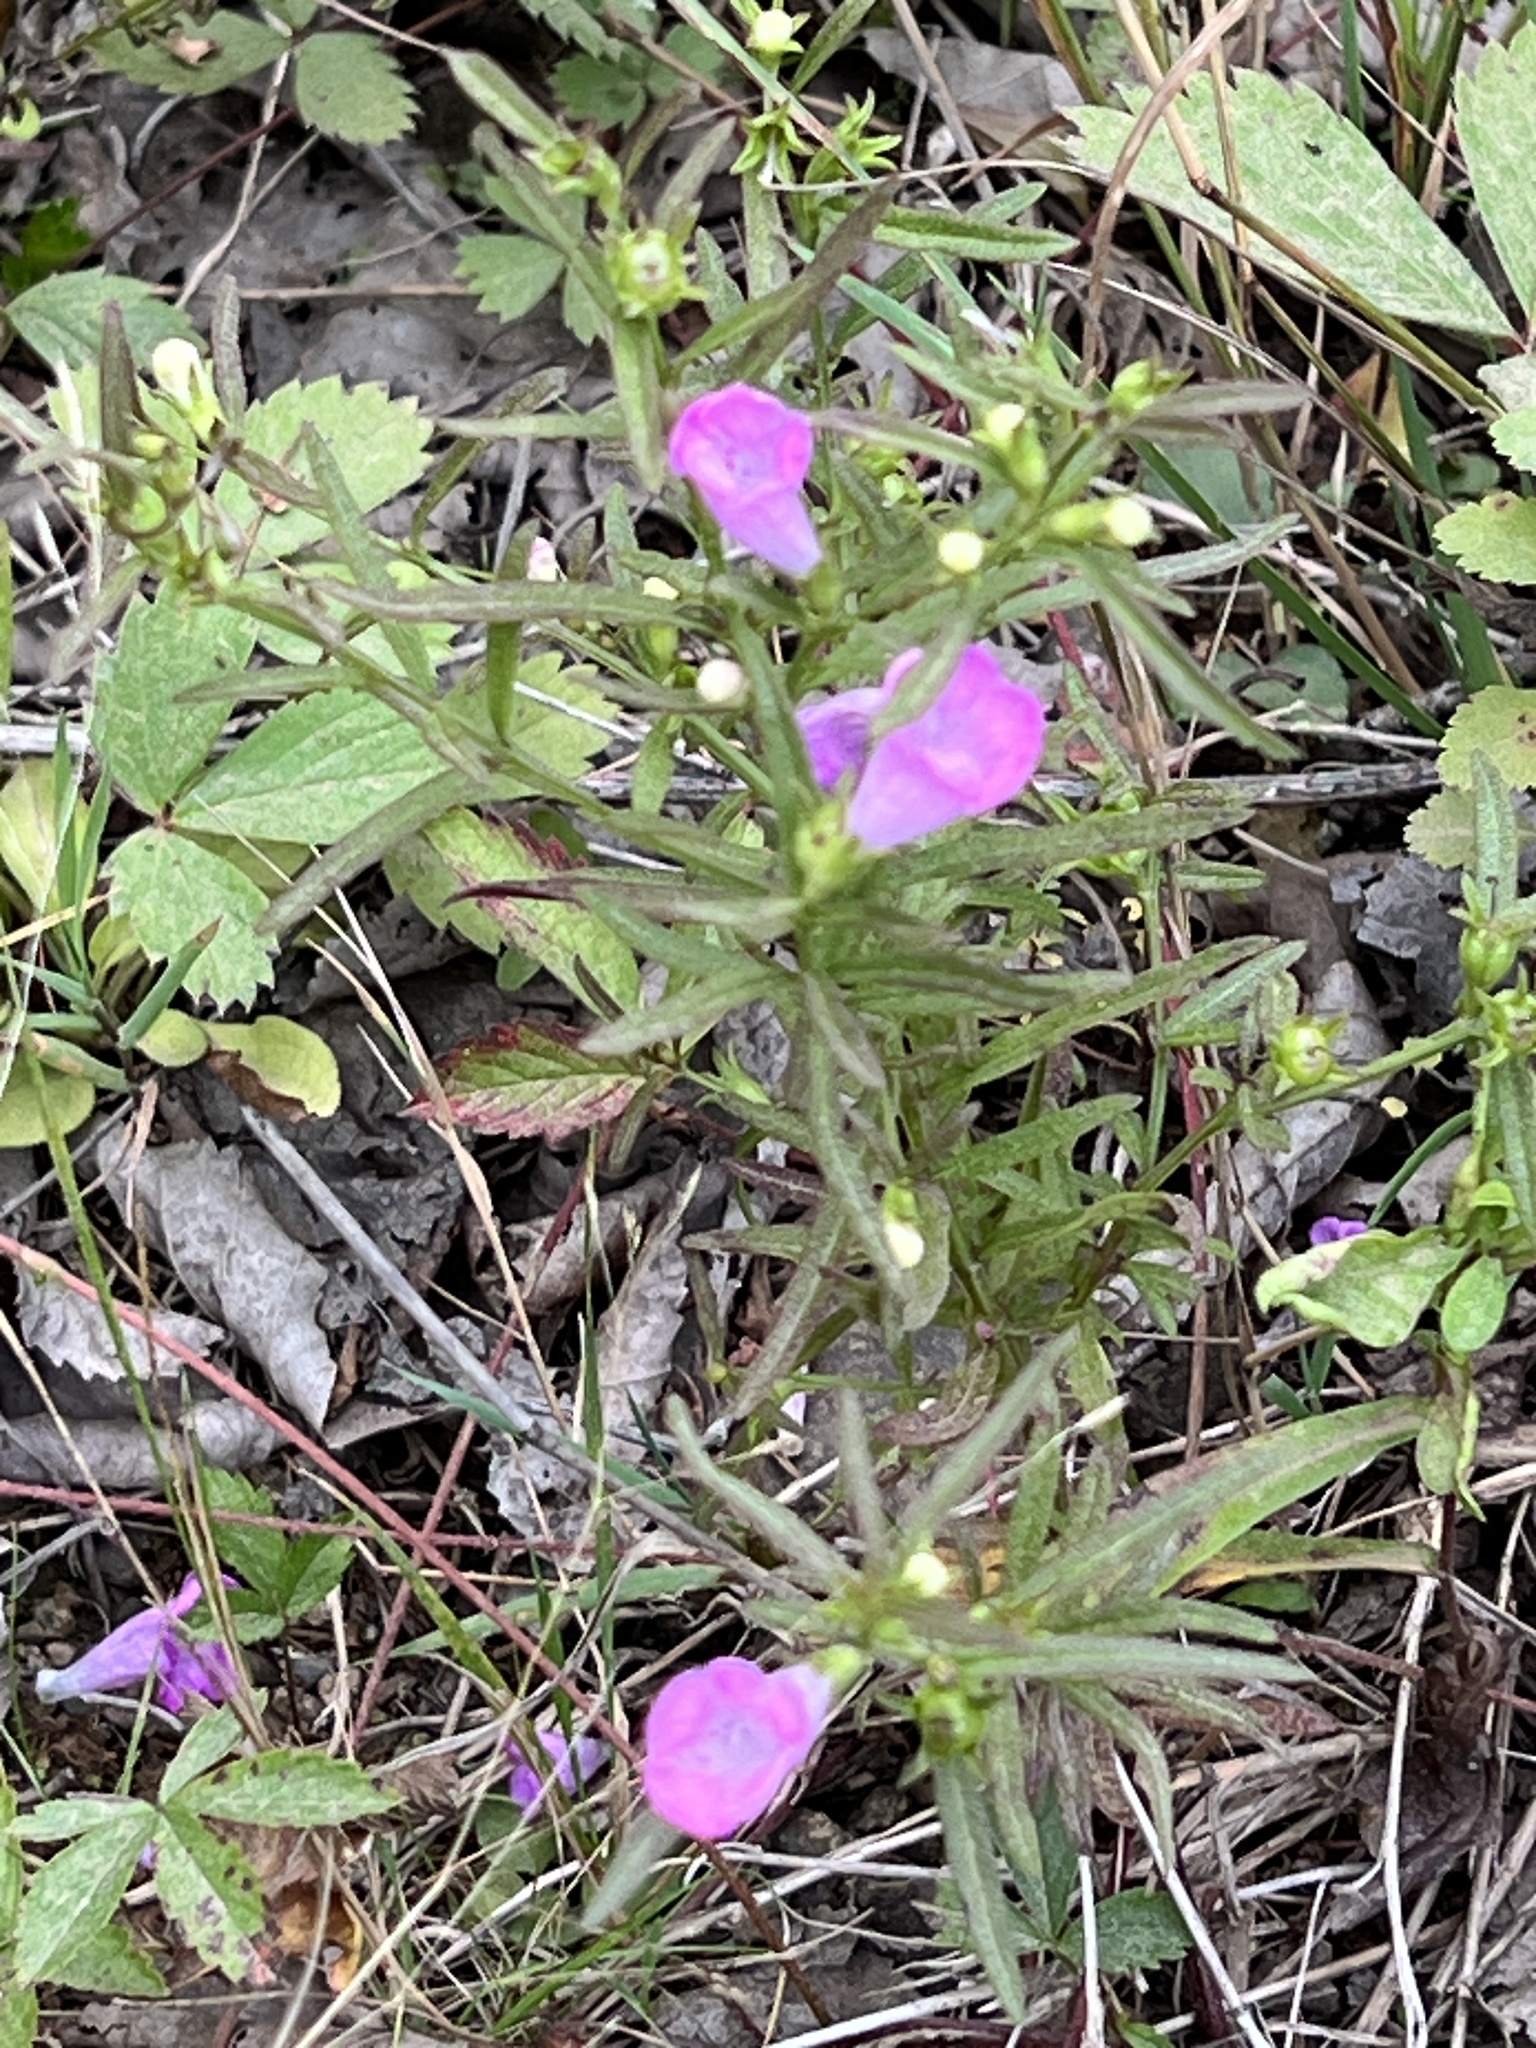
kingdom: Plantae
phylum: Tracheophyta
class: Magnoliopsida
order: Lamiales
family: Orobanchaceae
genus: Agalinis
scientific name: Agalinis neoscotica
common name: Middleton false foxglove
